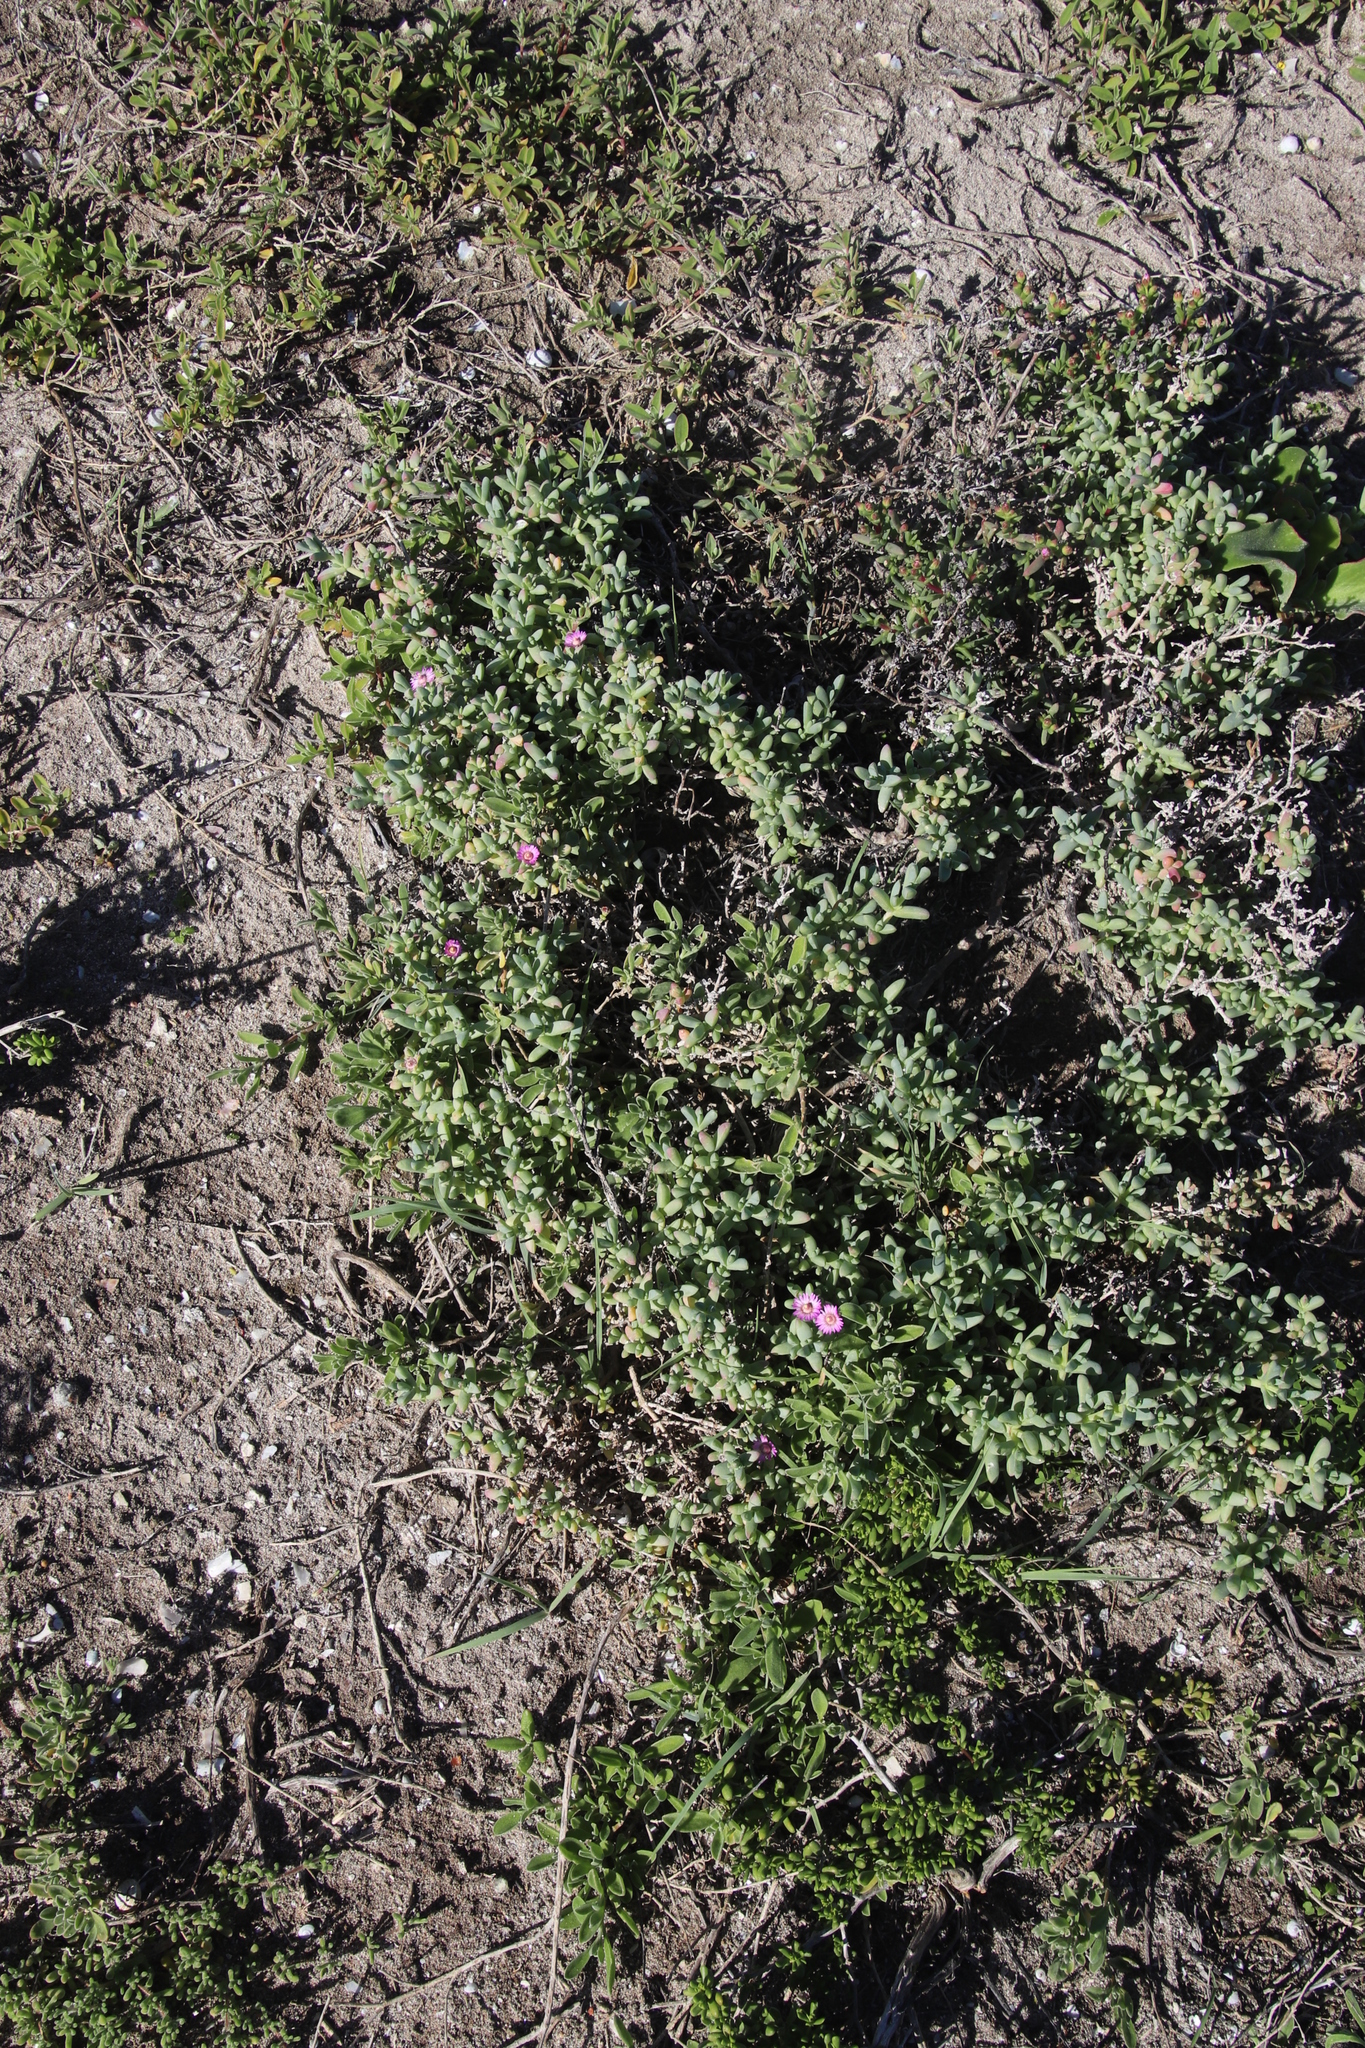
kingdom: Plantae
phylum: Tracheophyta
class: Magnoliopsida
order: Caryophyllales
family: Aizoaceae
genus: Amphibolia
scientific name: Amphibolia laevis
